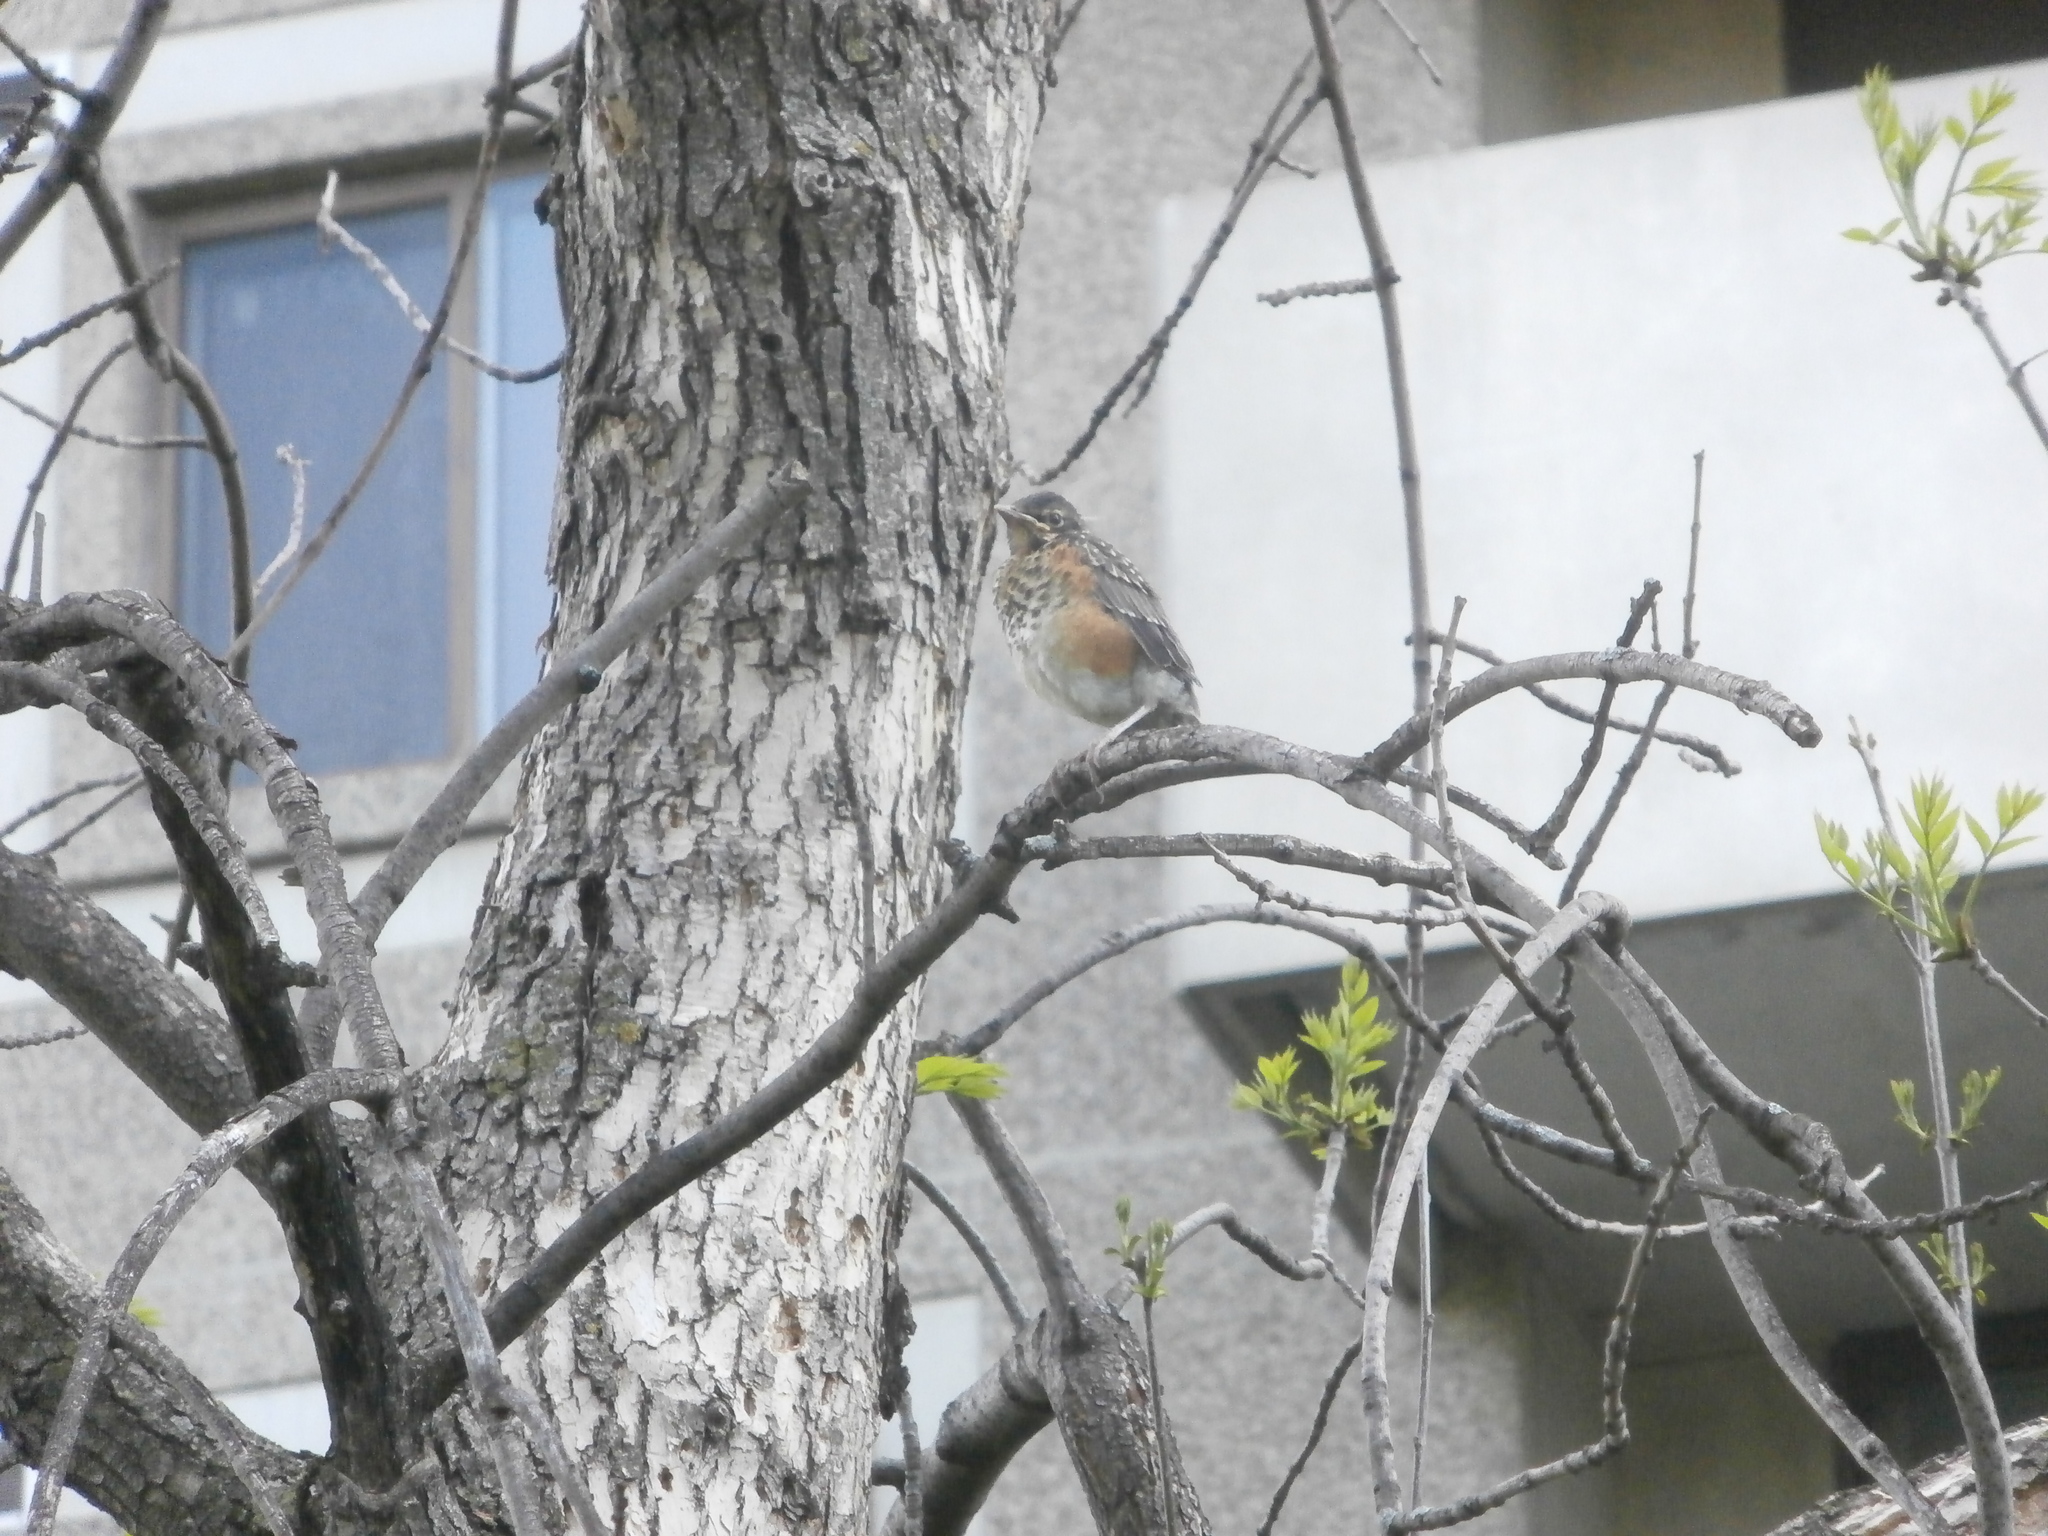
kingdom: Animalia
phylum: Chordata
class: Aves
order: Passeriformes
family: Turdidae
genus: Turdus
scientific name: Turdus migratorius
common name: American robin
